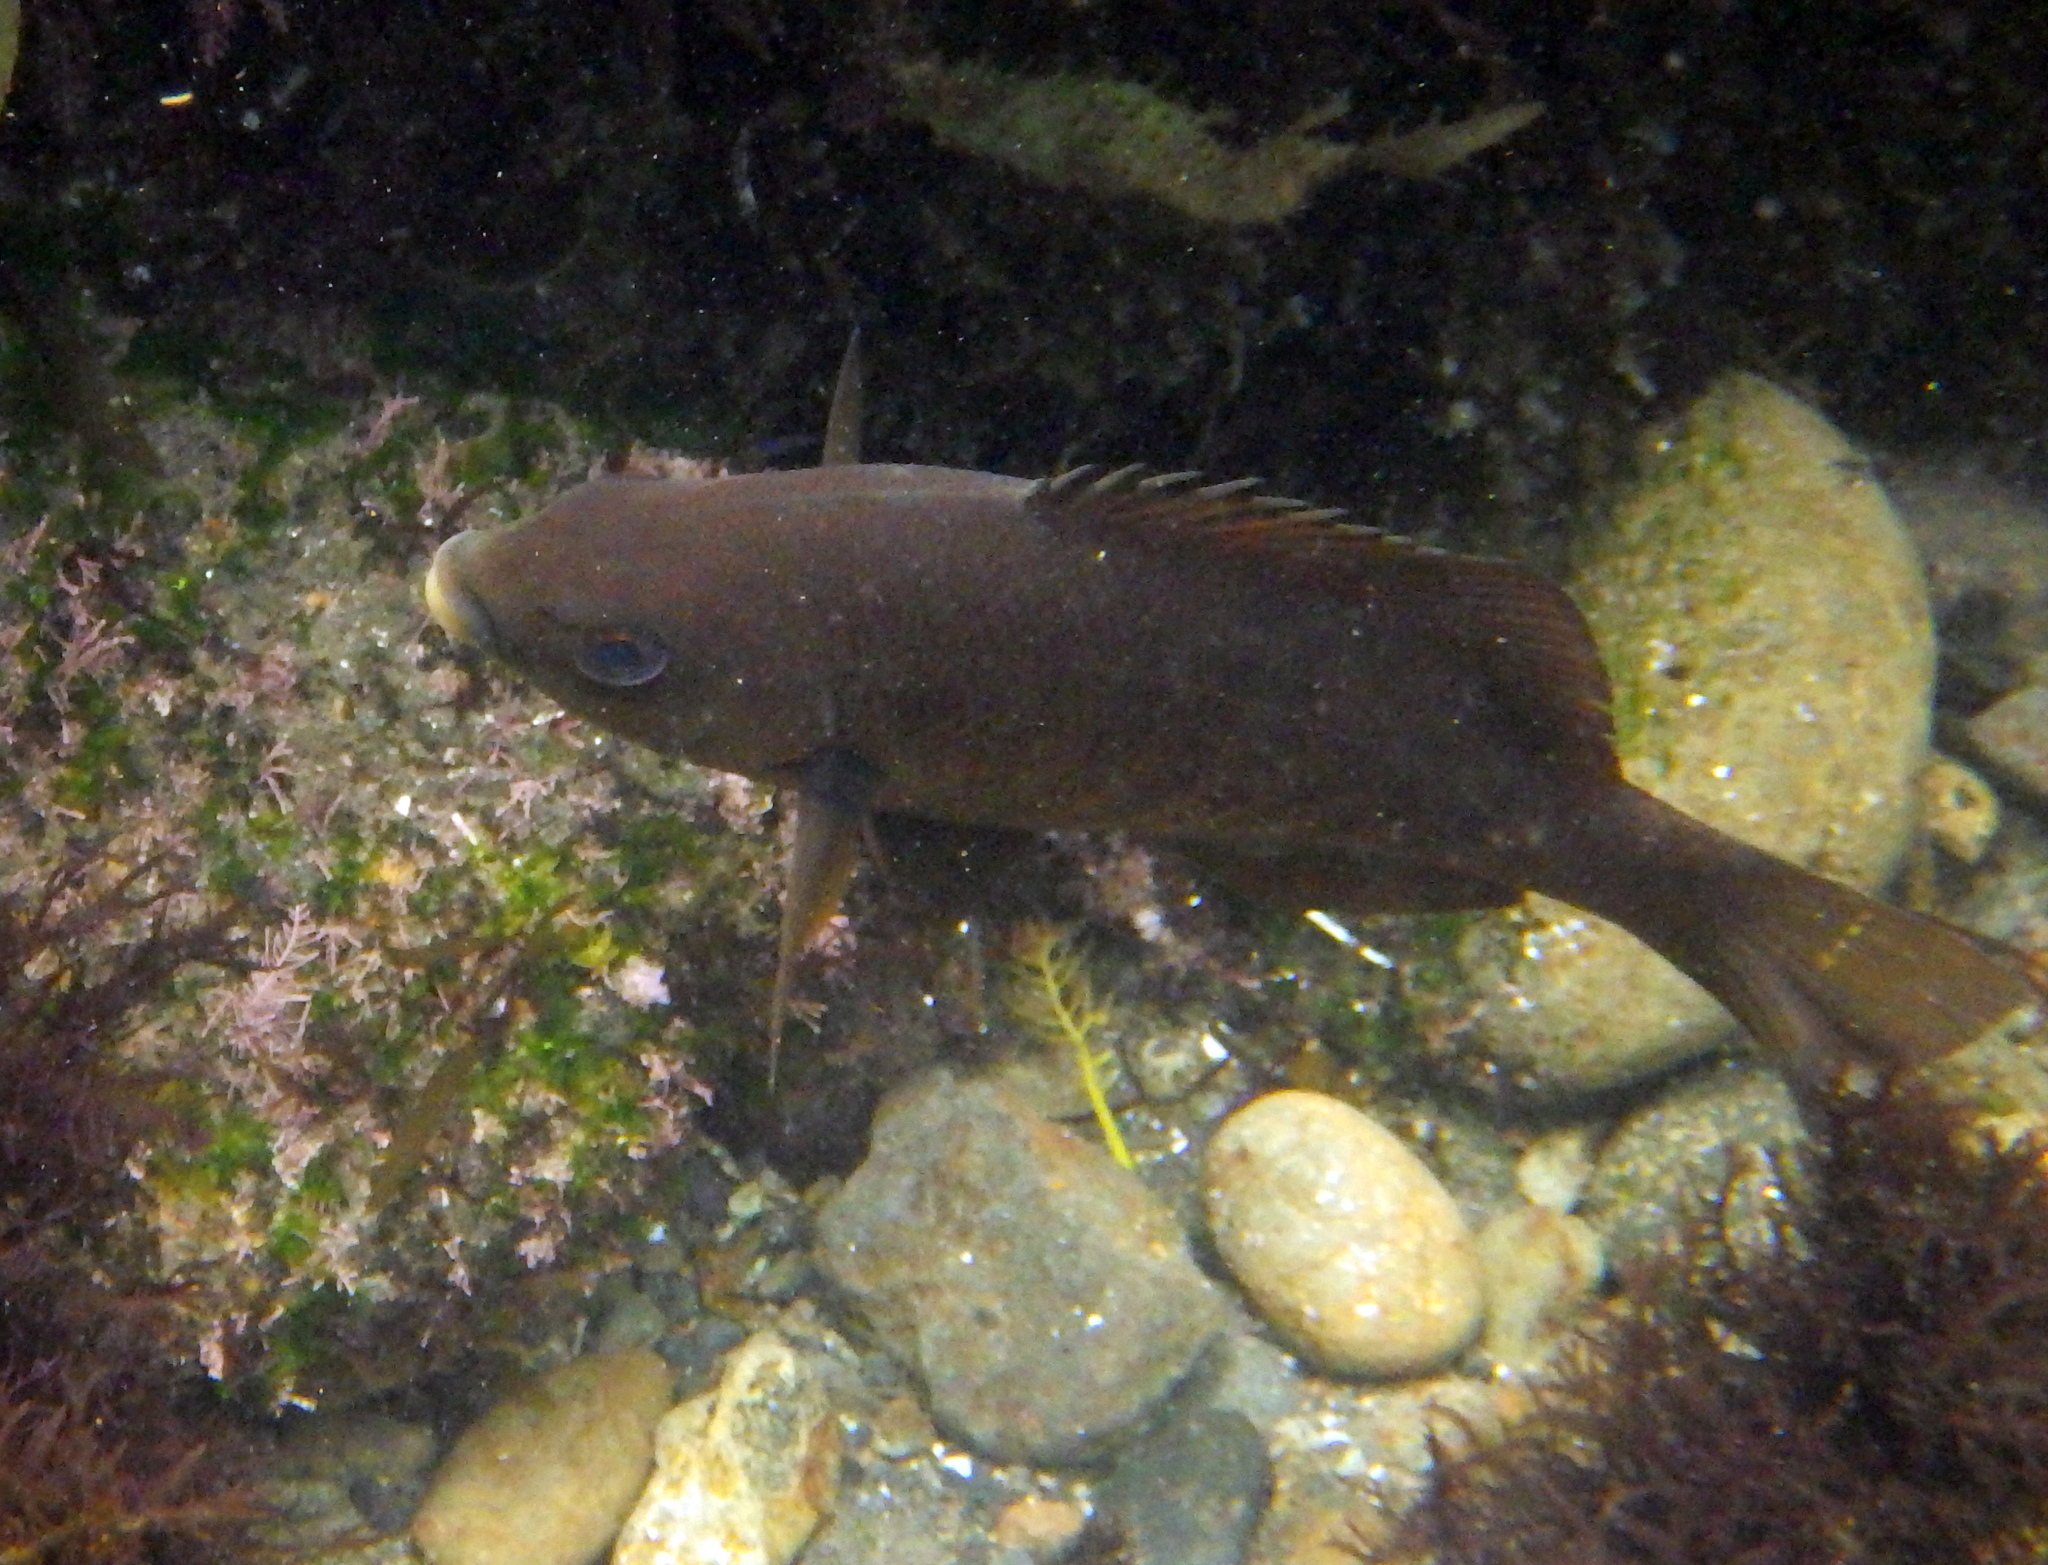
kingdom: Animalia
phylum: Chordata
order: Perciformes
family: Embiotocidae
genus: Embiotoca
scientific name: Embiotoca jacksoni
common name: Black perch
